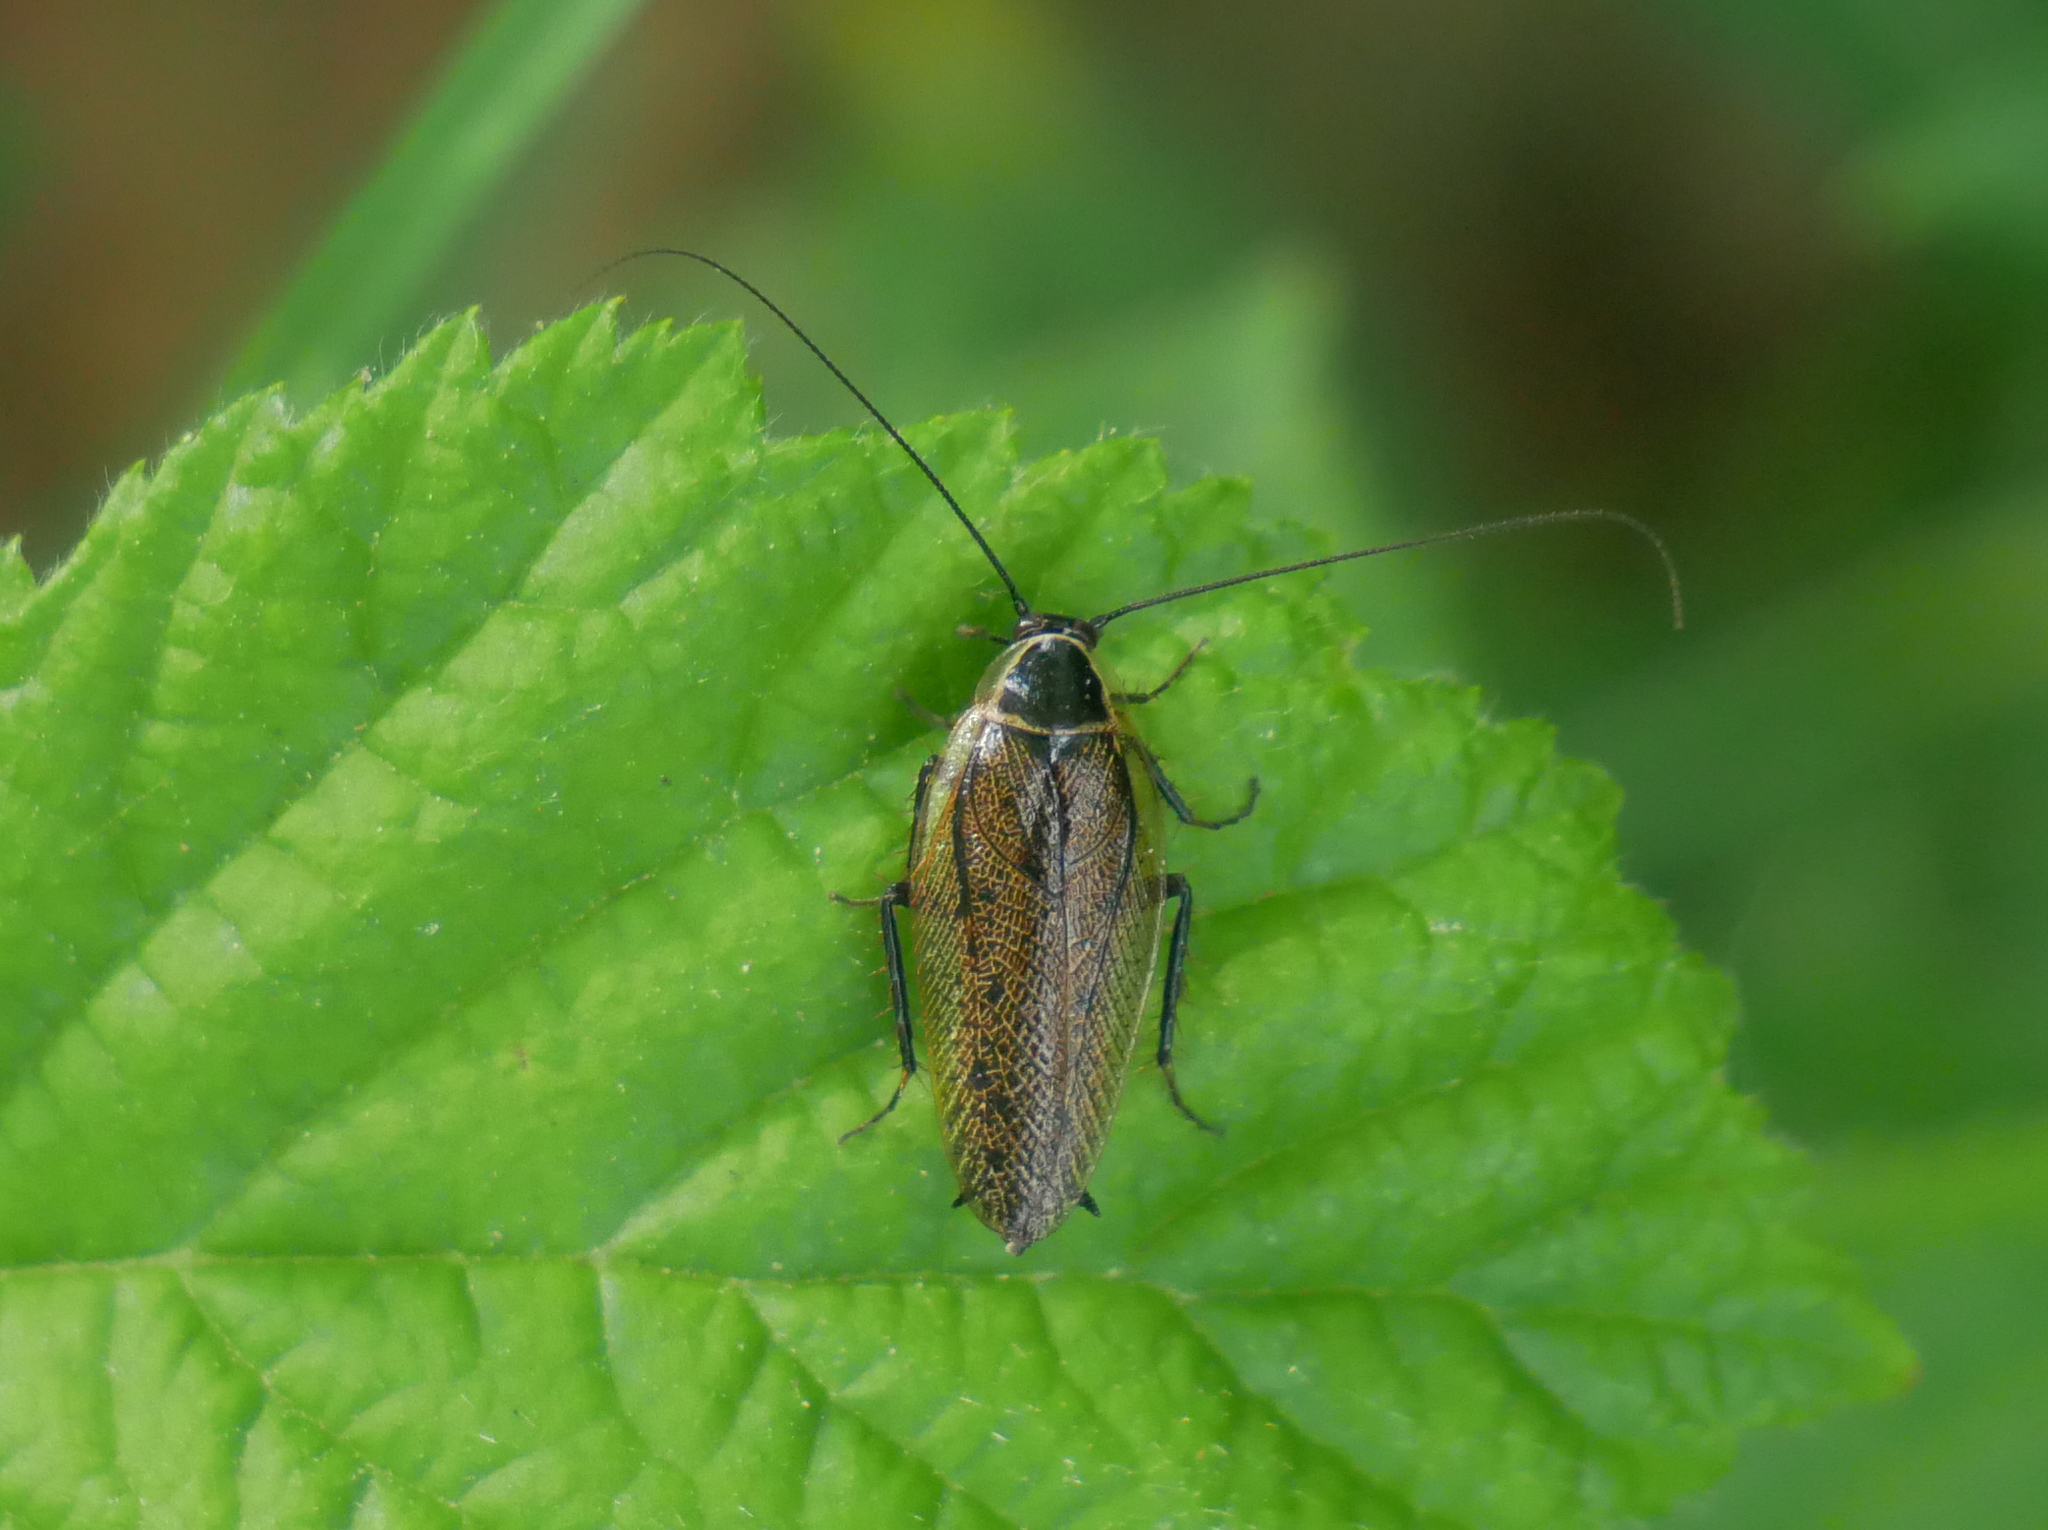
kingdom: Animalia
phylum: Arthropoda
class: Insecta
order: Blattodea
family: Ectobiidae
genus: Ectobius
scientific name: Ectobius sylvestris
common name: Forest cockroach
